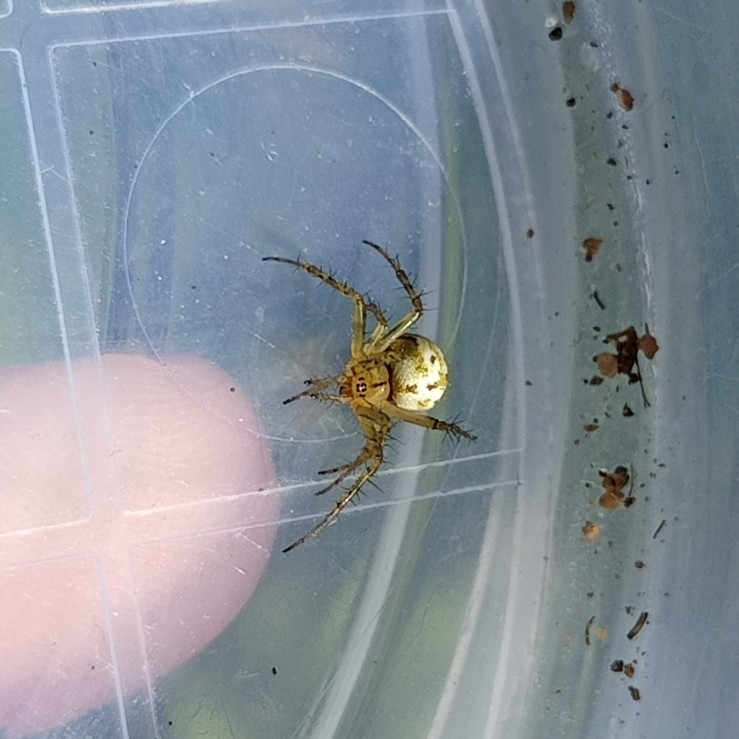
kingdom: Animalia
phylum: Arthropoda
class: Arachnida
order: Araneae
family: Araneidae
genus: Mangora
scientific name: Mangora acalypha
